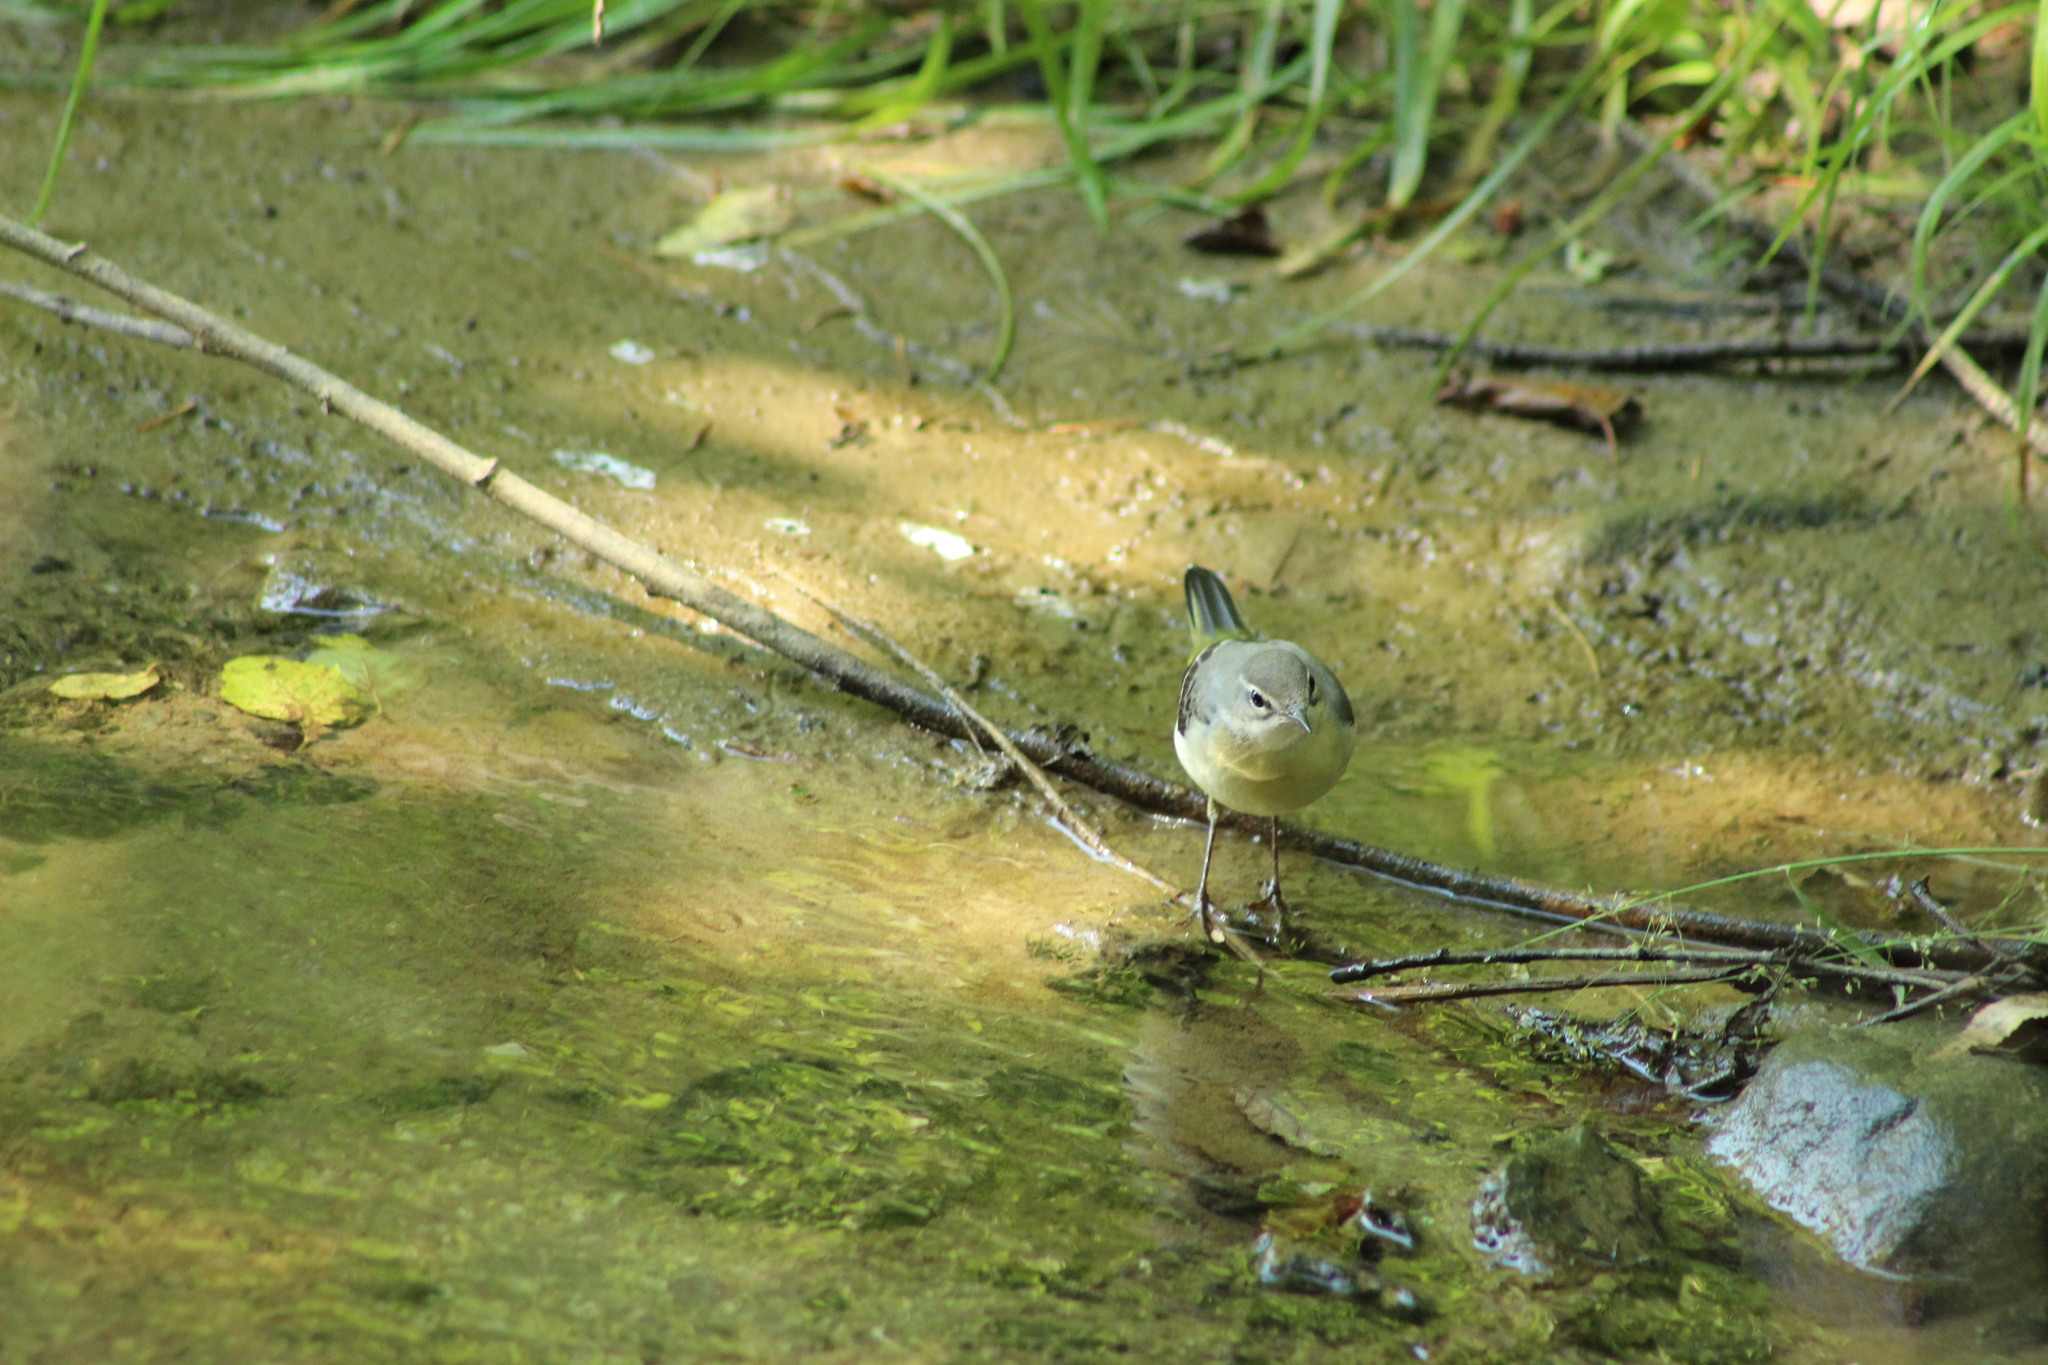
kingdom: Animalia
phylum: Chordata
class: Aves
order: Passeriformes
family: Motacillidae
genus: Motacilla
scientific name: Motacilla cinerea
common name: Grey wagtail
